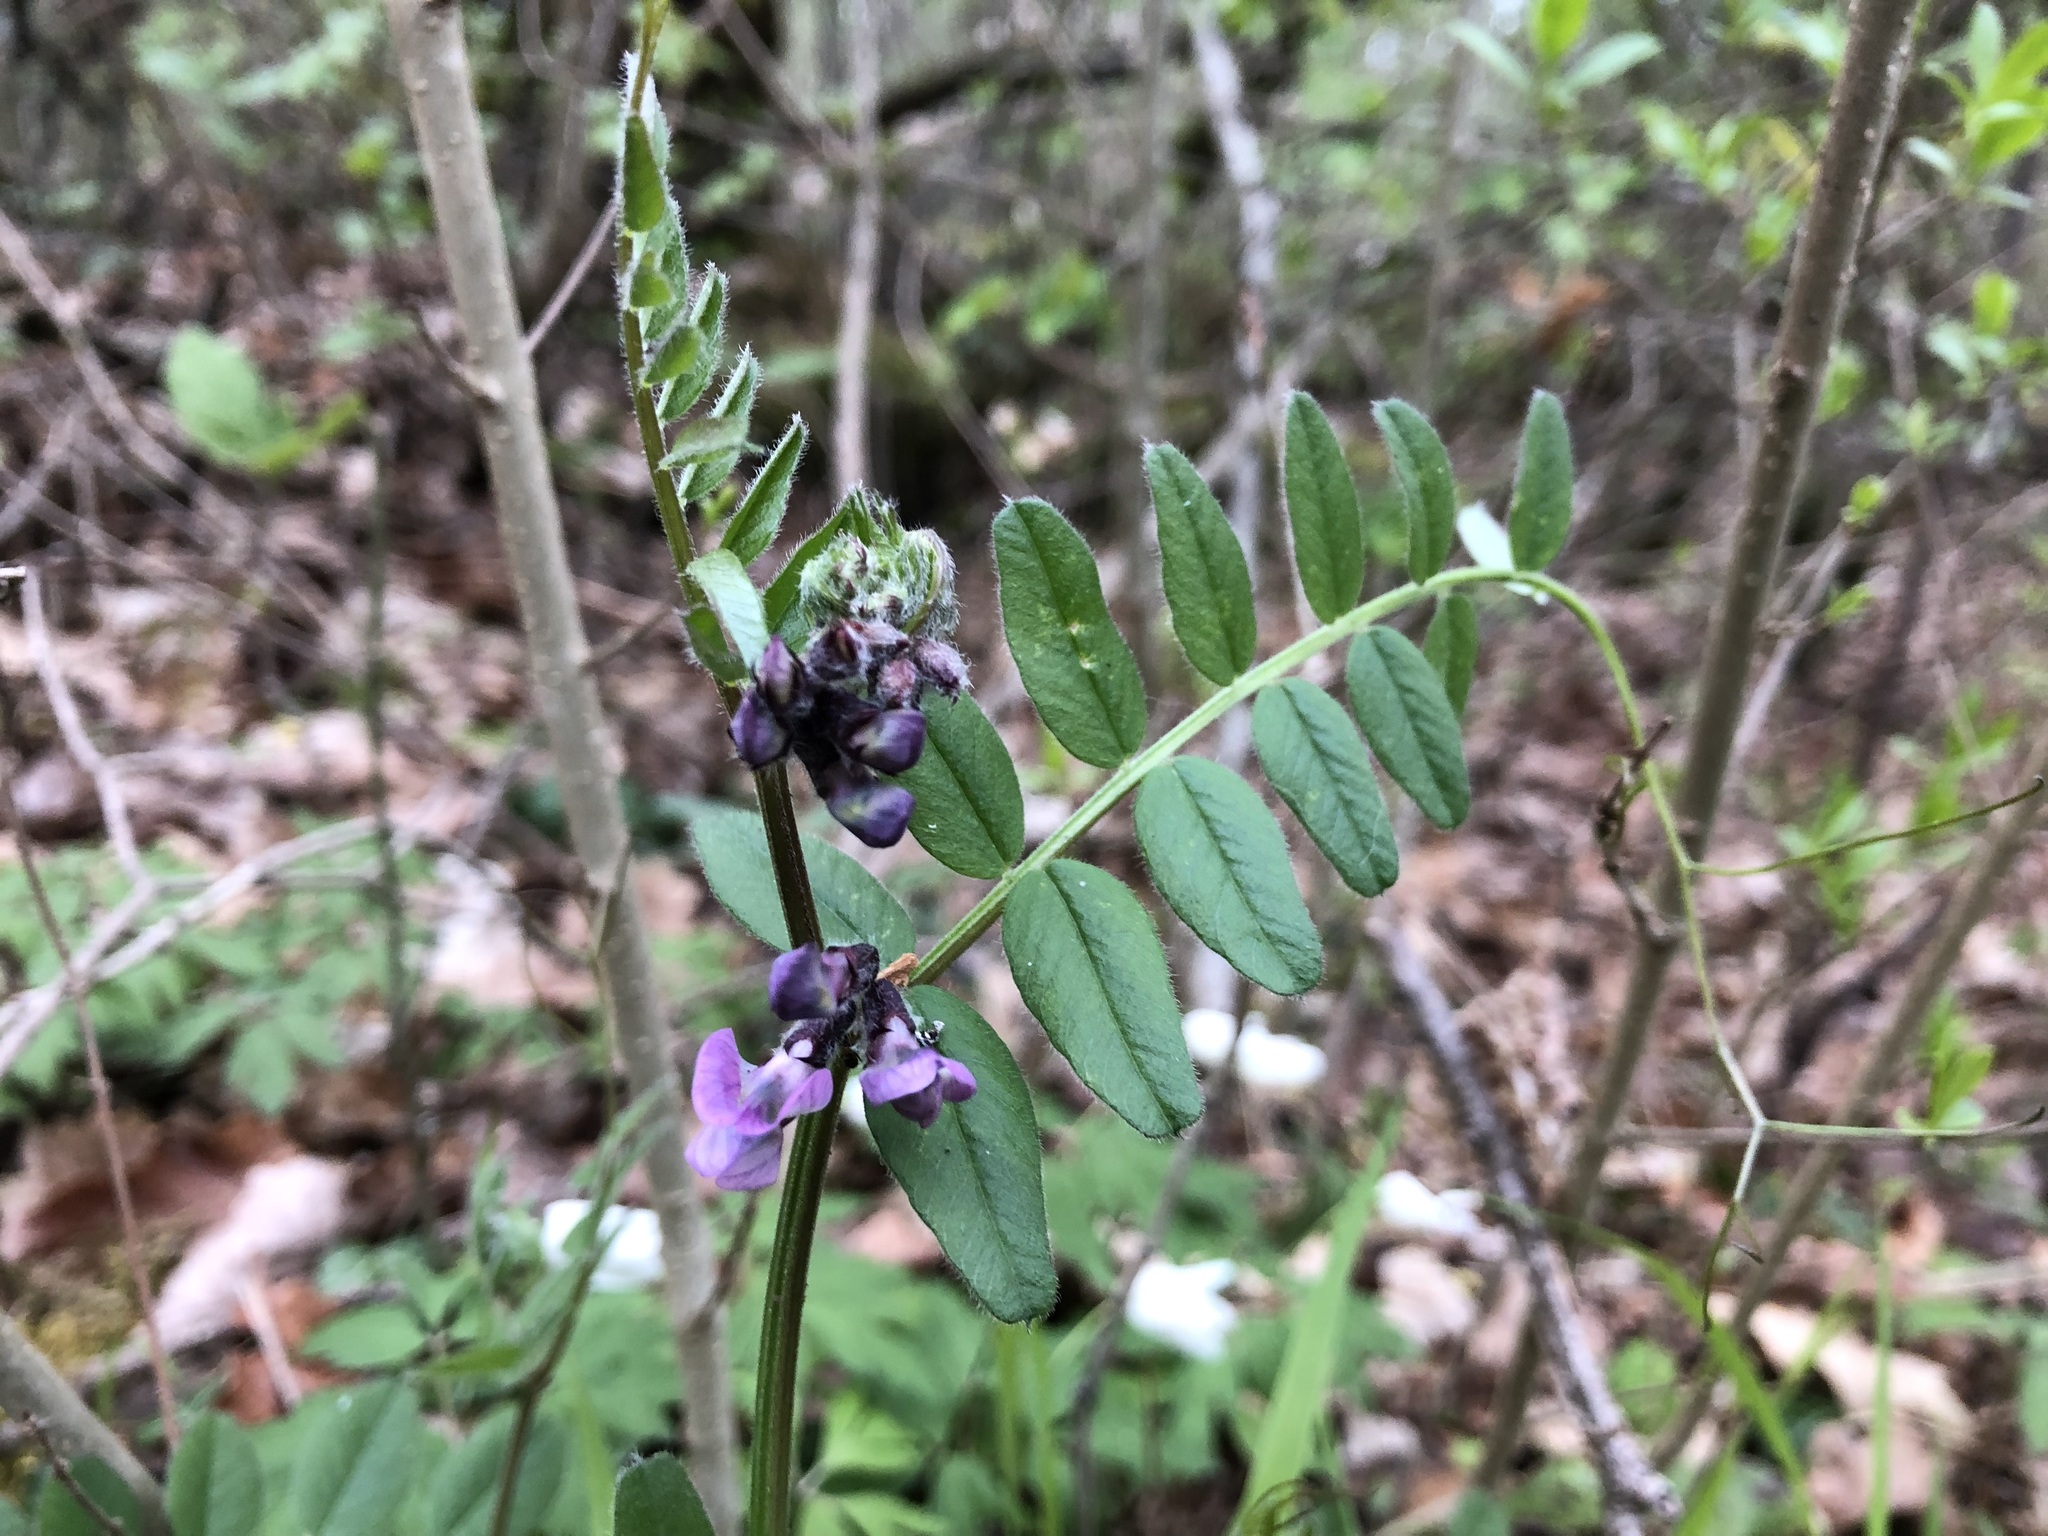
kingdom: Plantae
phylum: Tracheophyta
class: Magnoliopsida
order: Fabales
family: Fabaceae
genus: Vicia
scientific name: Vicia sepium
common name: Bush vetch
